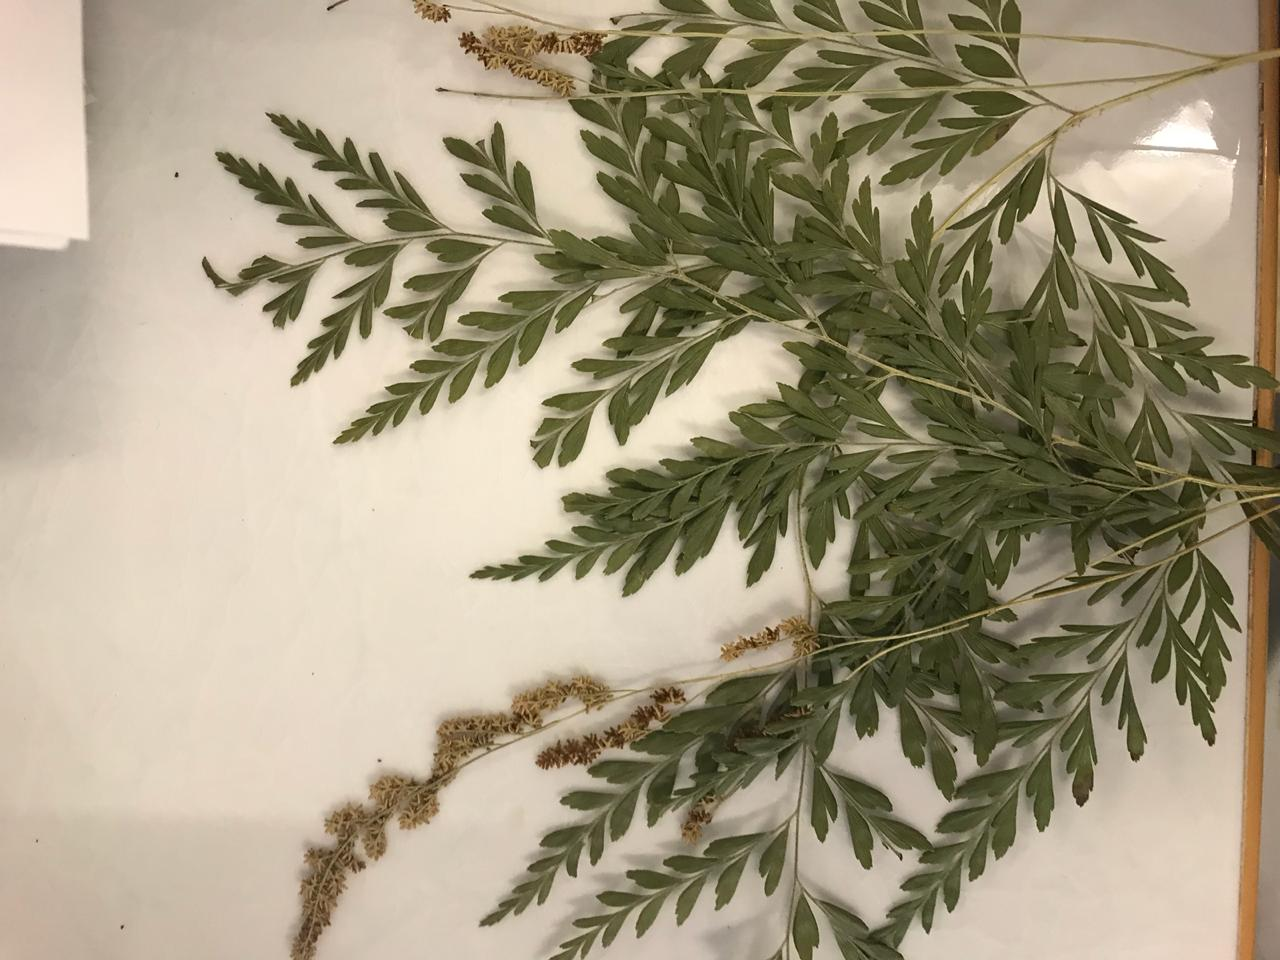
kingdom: Plantae
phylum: Tracheophyta
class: Polypodiopsida
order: Schizaeales
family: Anemiaceae
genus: Anemia
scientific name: Anemia adiantifolia
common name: Pine fern
